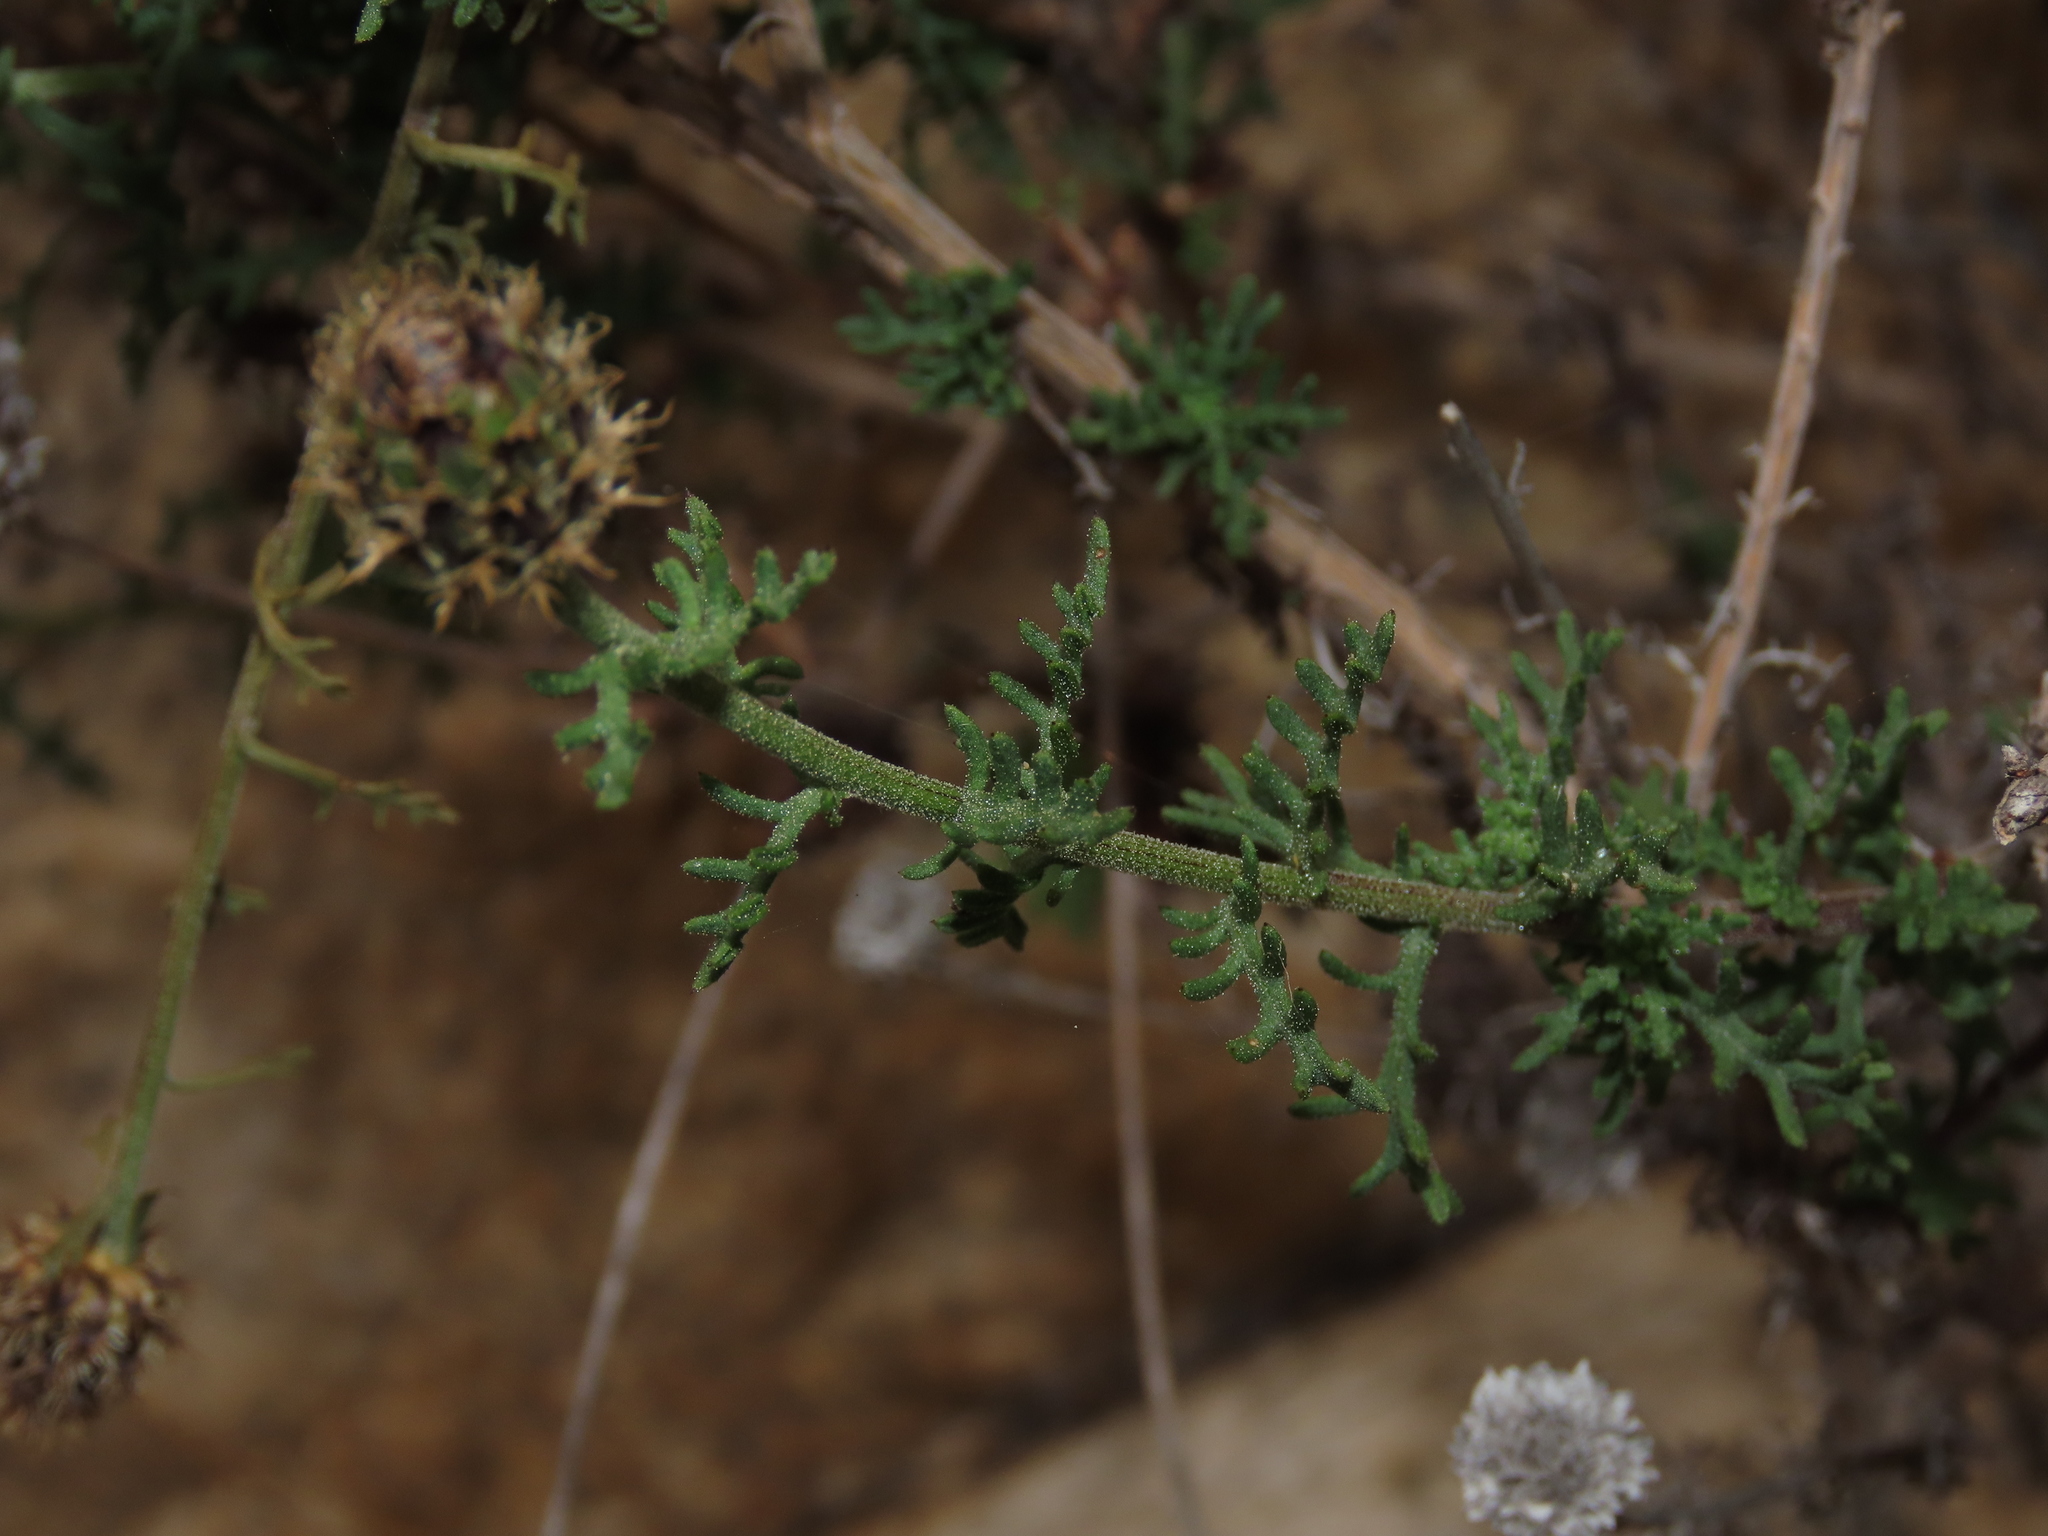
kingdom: Plantae
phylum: Tracheophyta
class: Magnoliopsida
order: Asterales
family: Asteraceae
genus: Plectocephalus
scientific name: Plectocephalus cachinalensis
